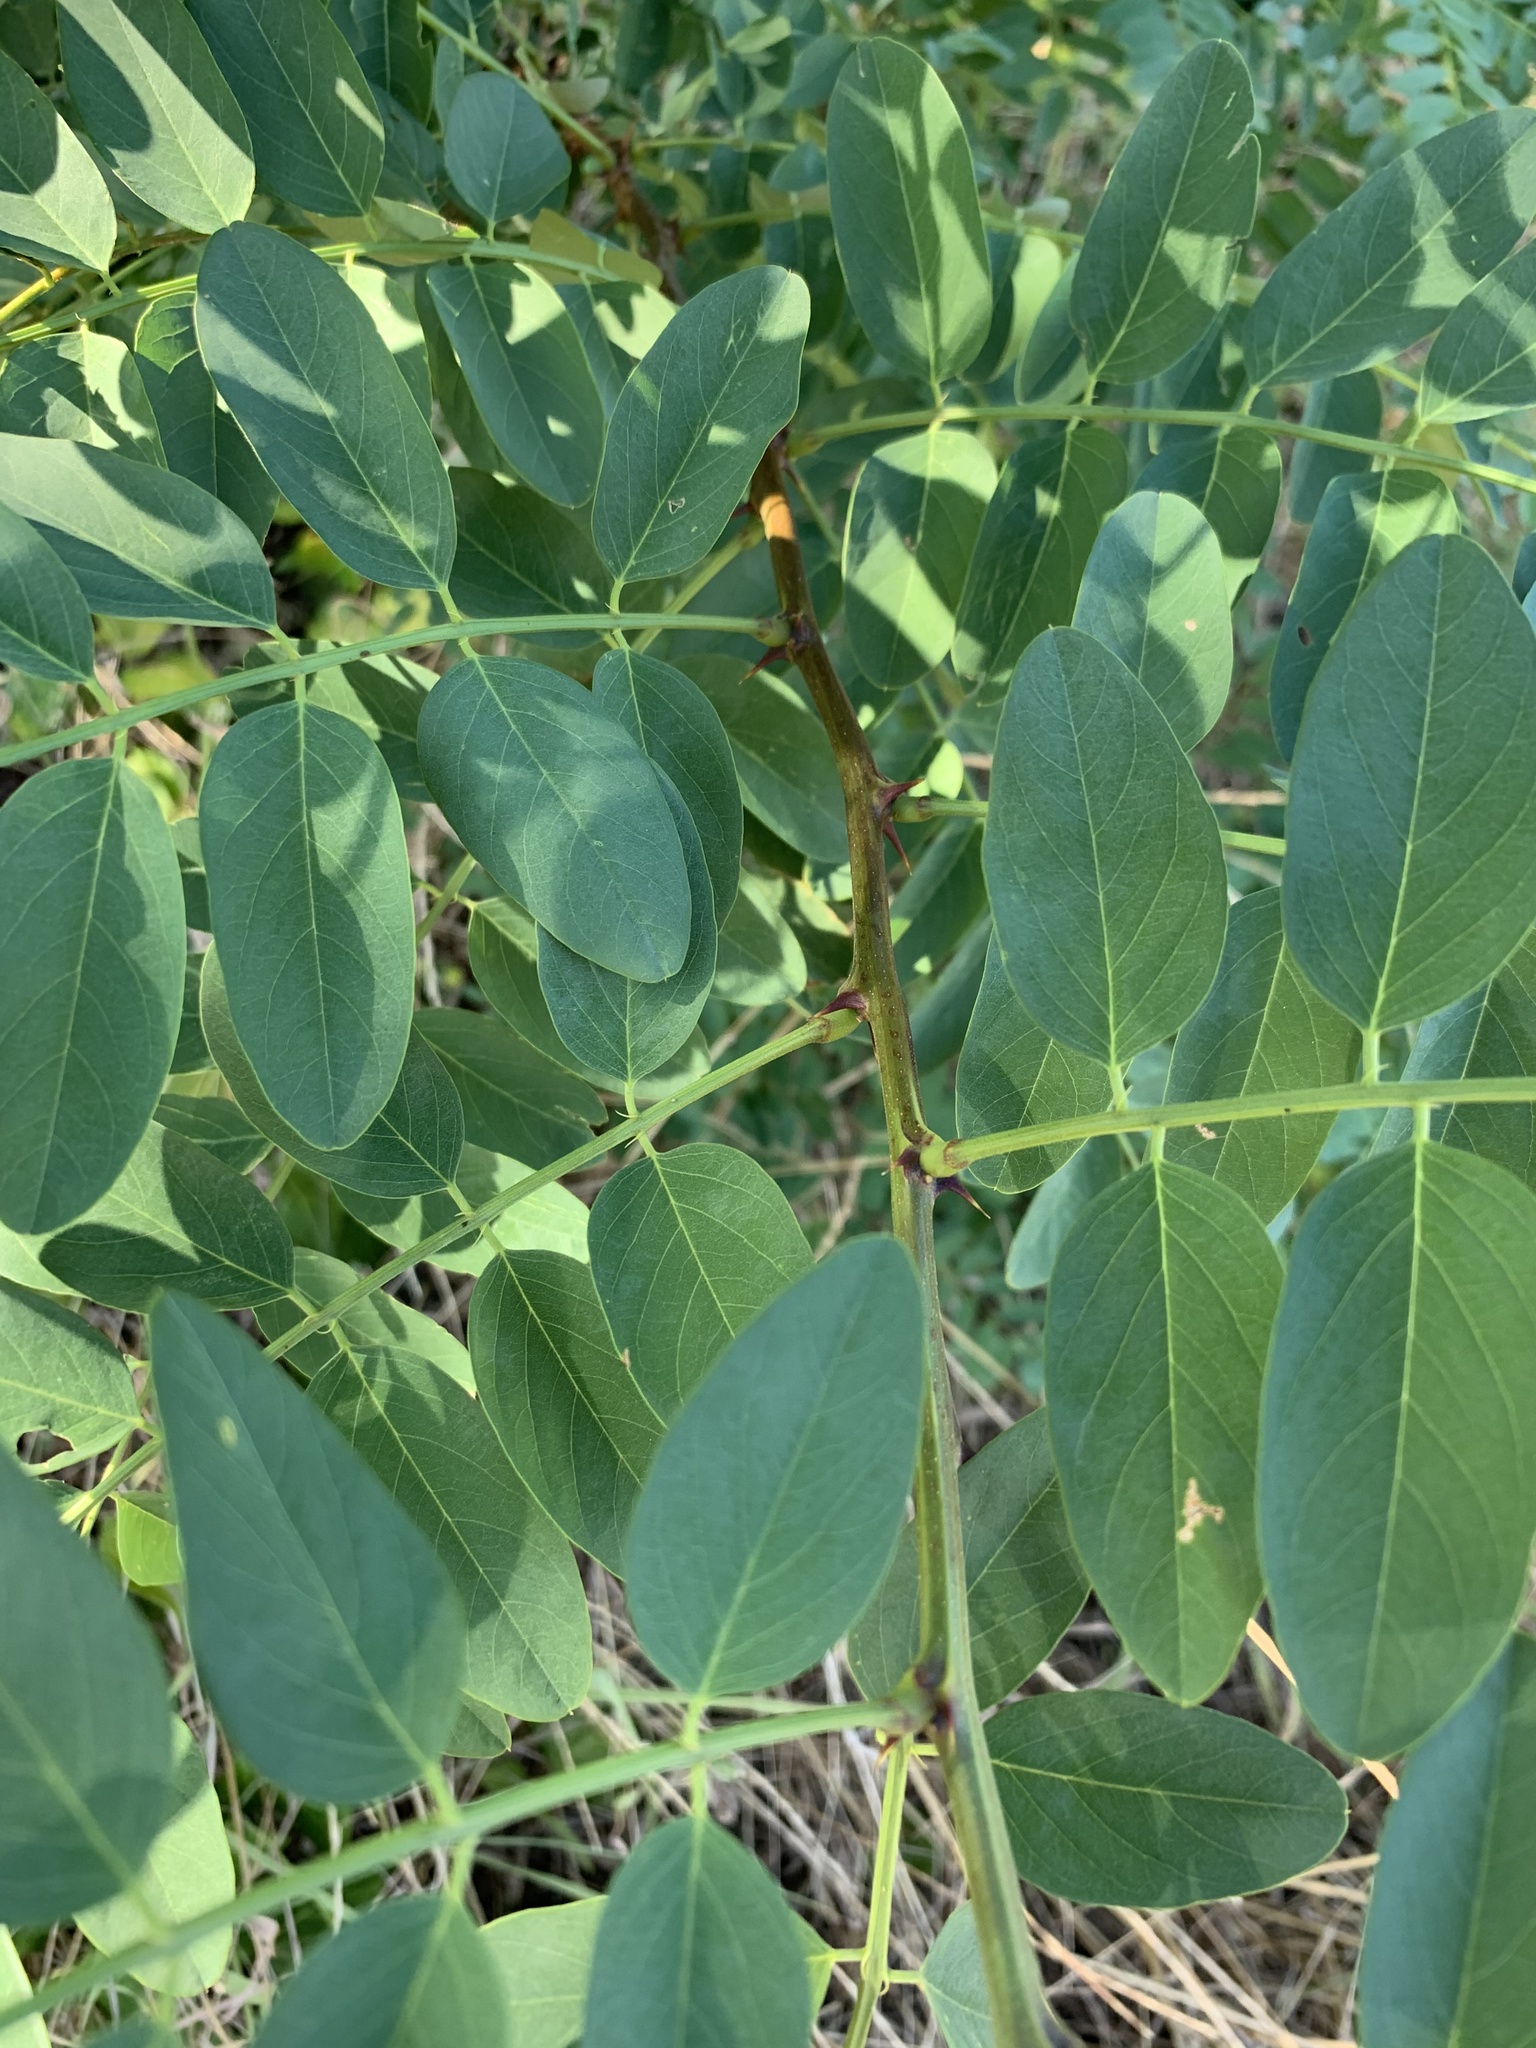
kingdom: Plantae
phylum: Tracheophyta
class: Magnoliopsida
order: Fabales
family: Fabaceae
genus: Robinia
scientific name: Robinia pseudoacacia
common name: Black locust
